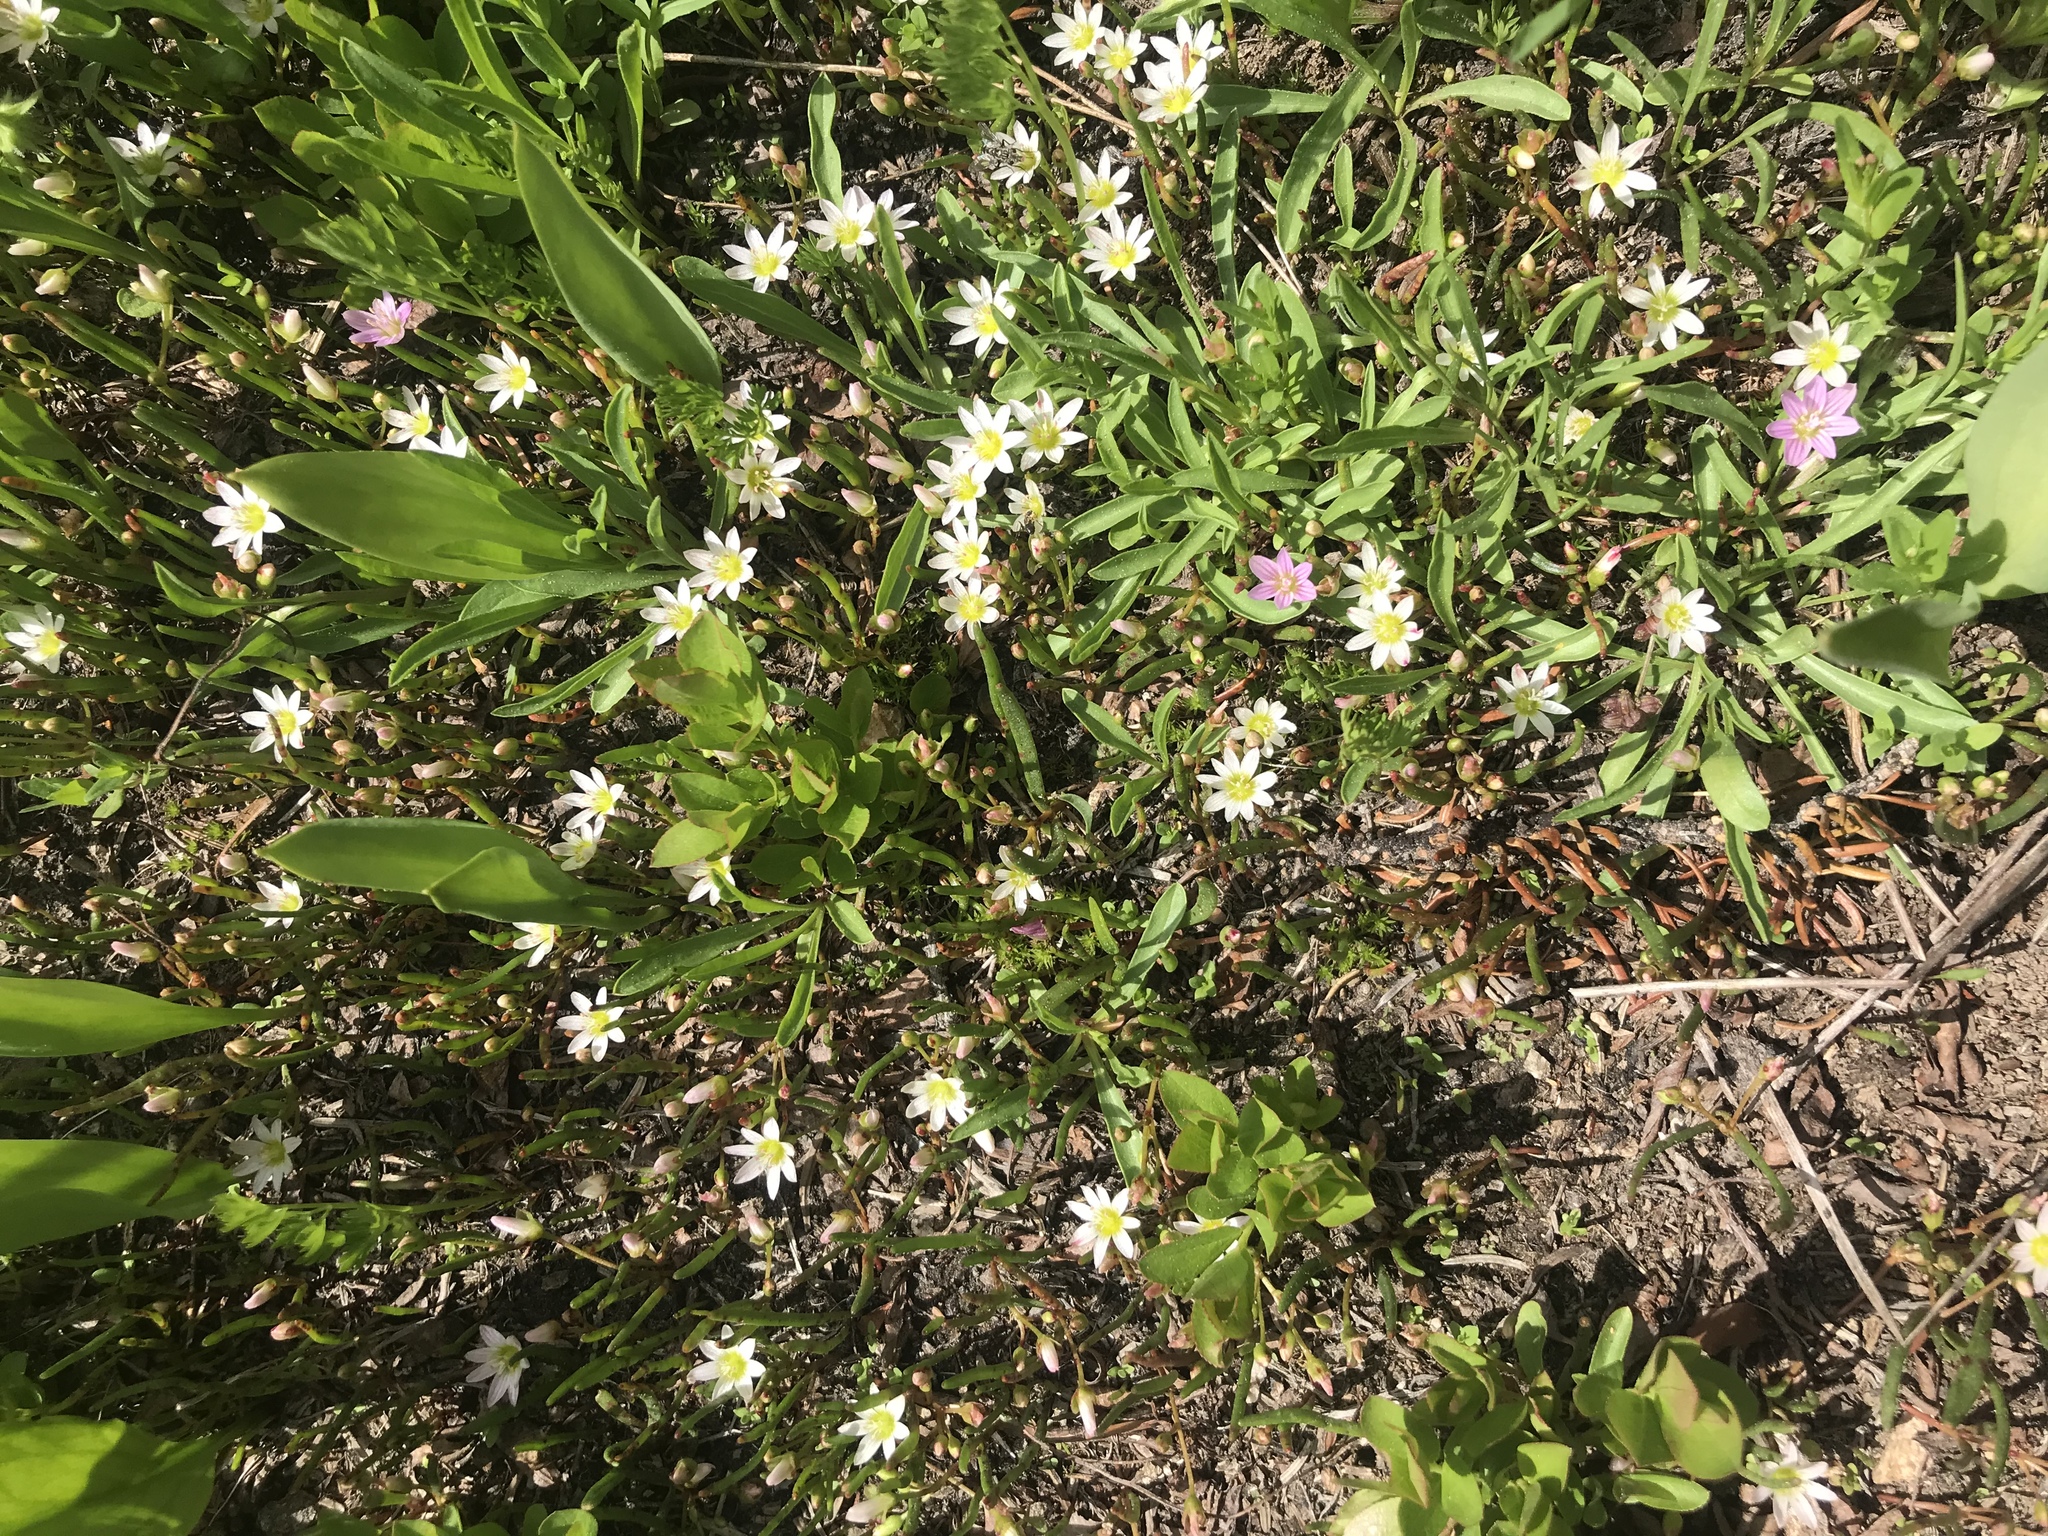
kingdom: Plantae
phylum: Tracheophyta
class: Magnoliopsida
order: Caryophyllales
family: Montiaceae
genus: Lewisia
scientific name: Lewisia pygmaea
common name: Alpine bitterroot
